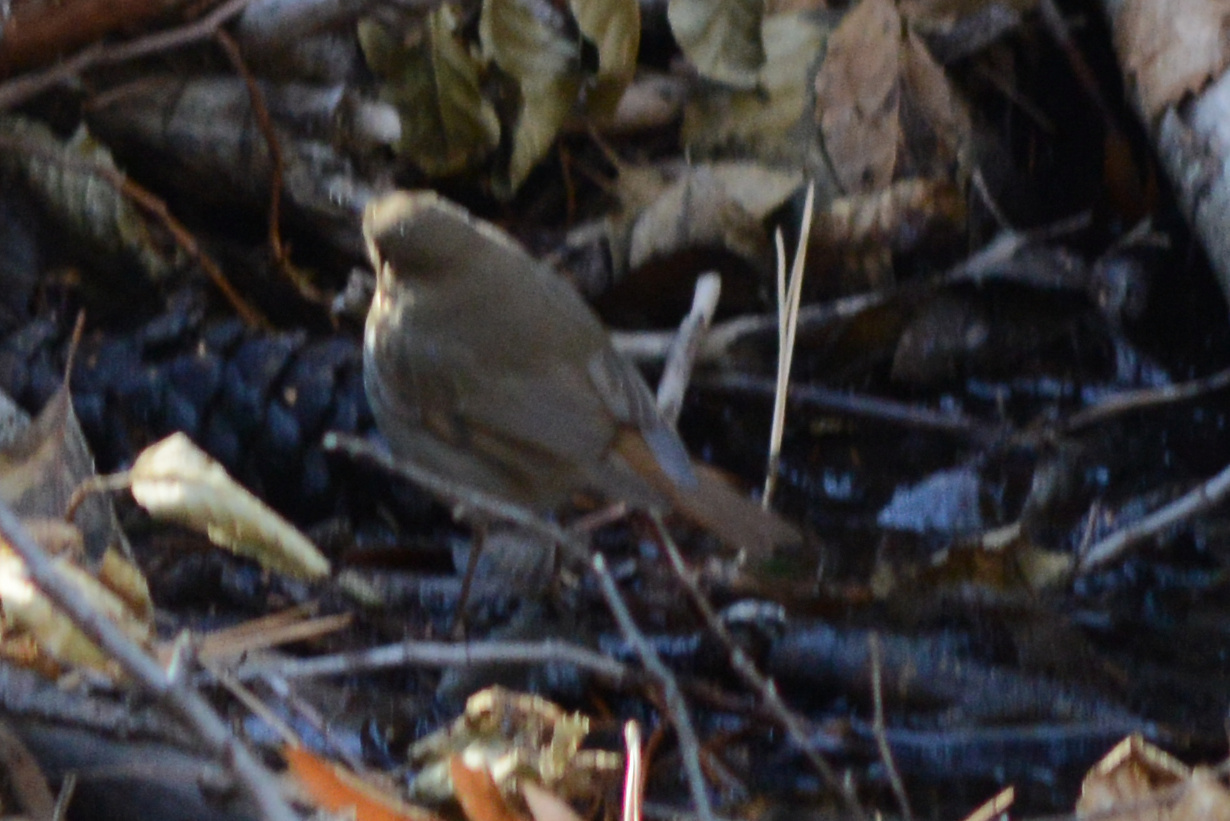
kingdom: Animalia
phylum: Chordata
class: Aves
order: Passeriformes
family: Turdidae
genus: Catharus
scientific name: Catharus guttatus
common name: Hermit thrush
